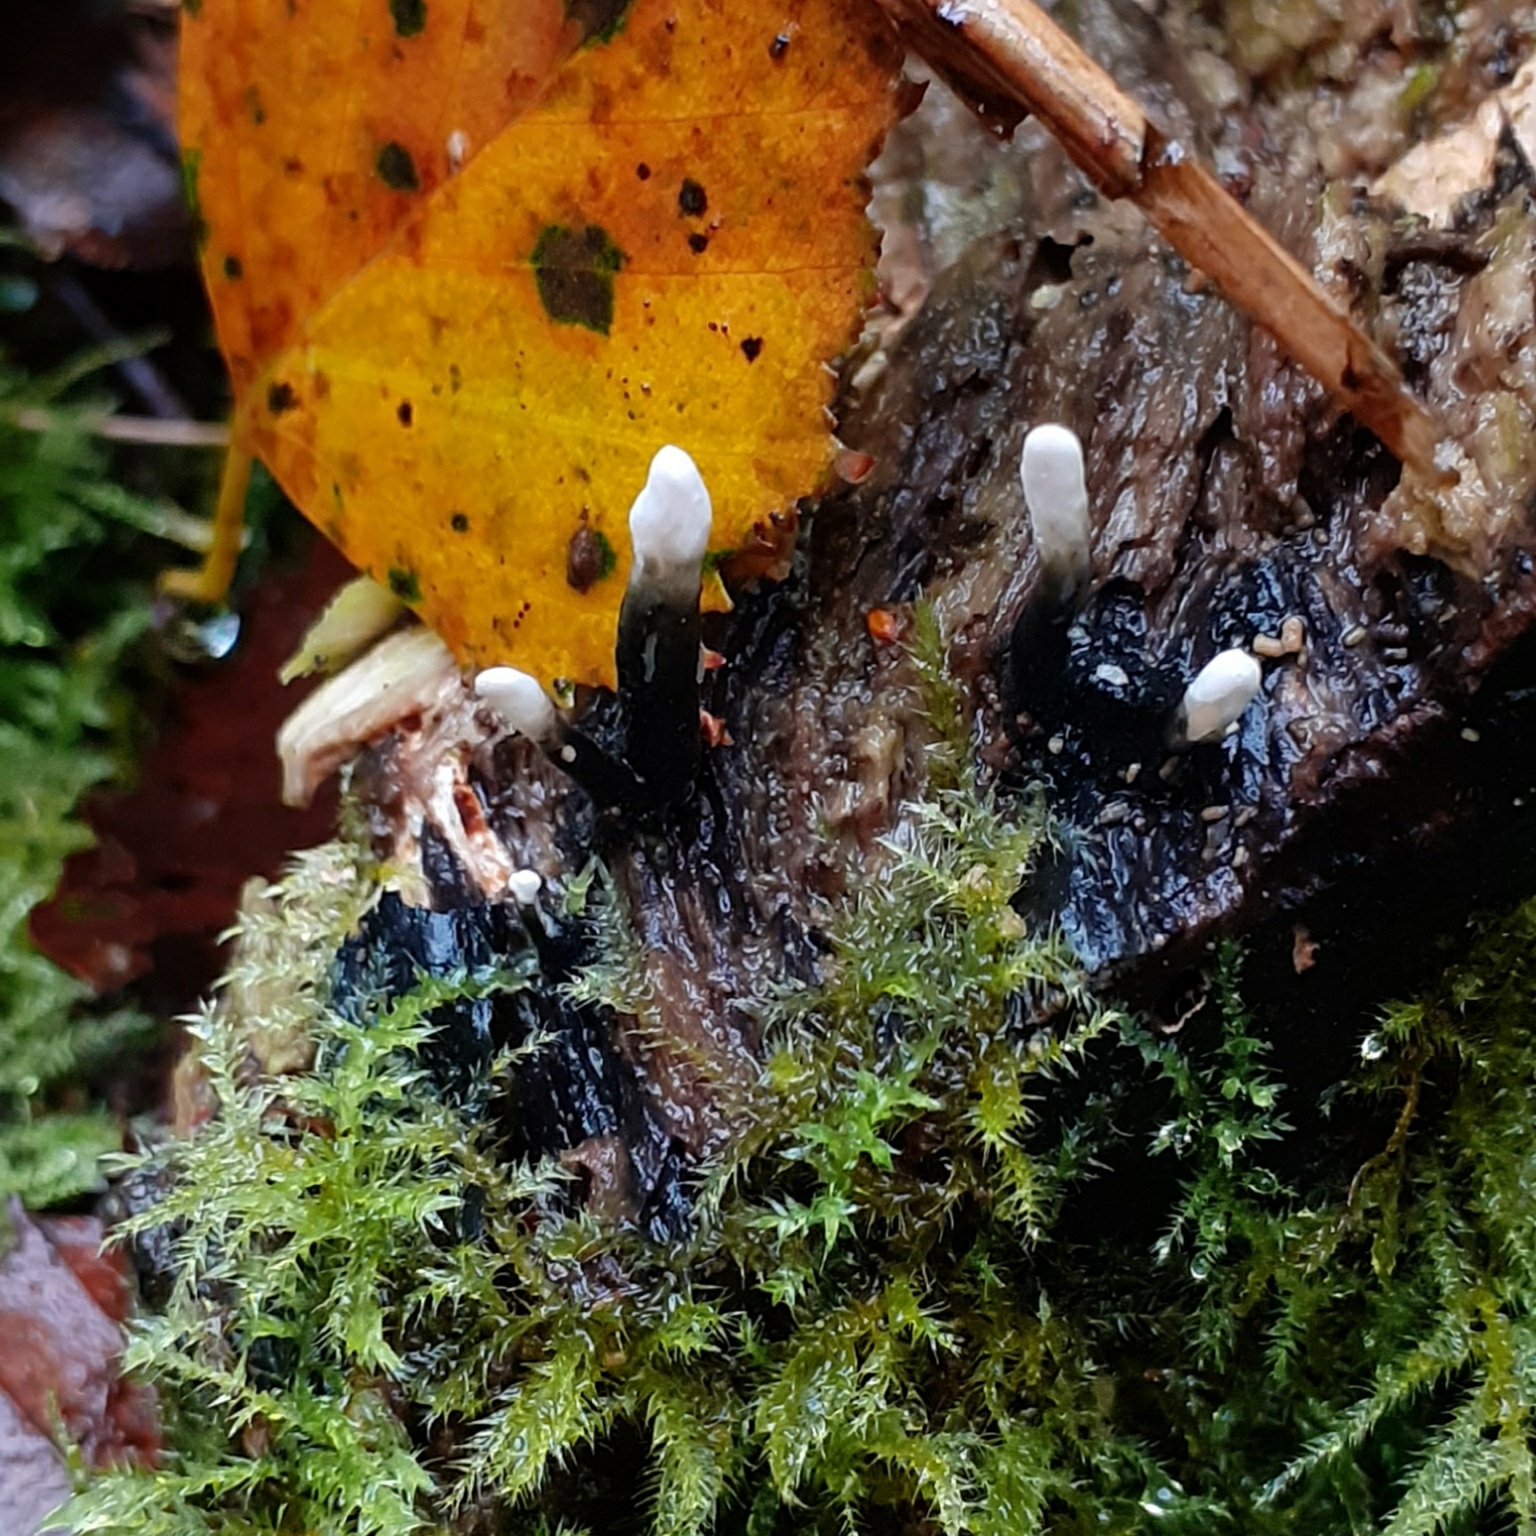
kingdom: Fungi
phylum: Ascomycota
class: Sordariomycetes
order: Xylariales
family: Xylariaceae
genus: Xylaria
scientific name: Xylaria hypoxylon
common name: Candle-snuff fungus
